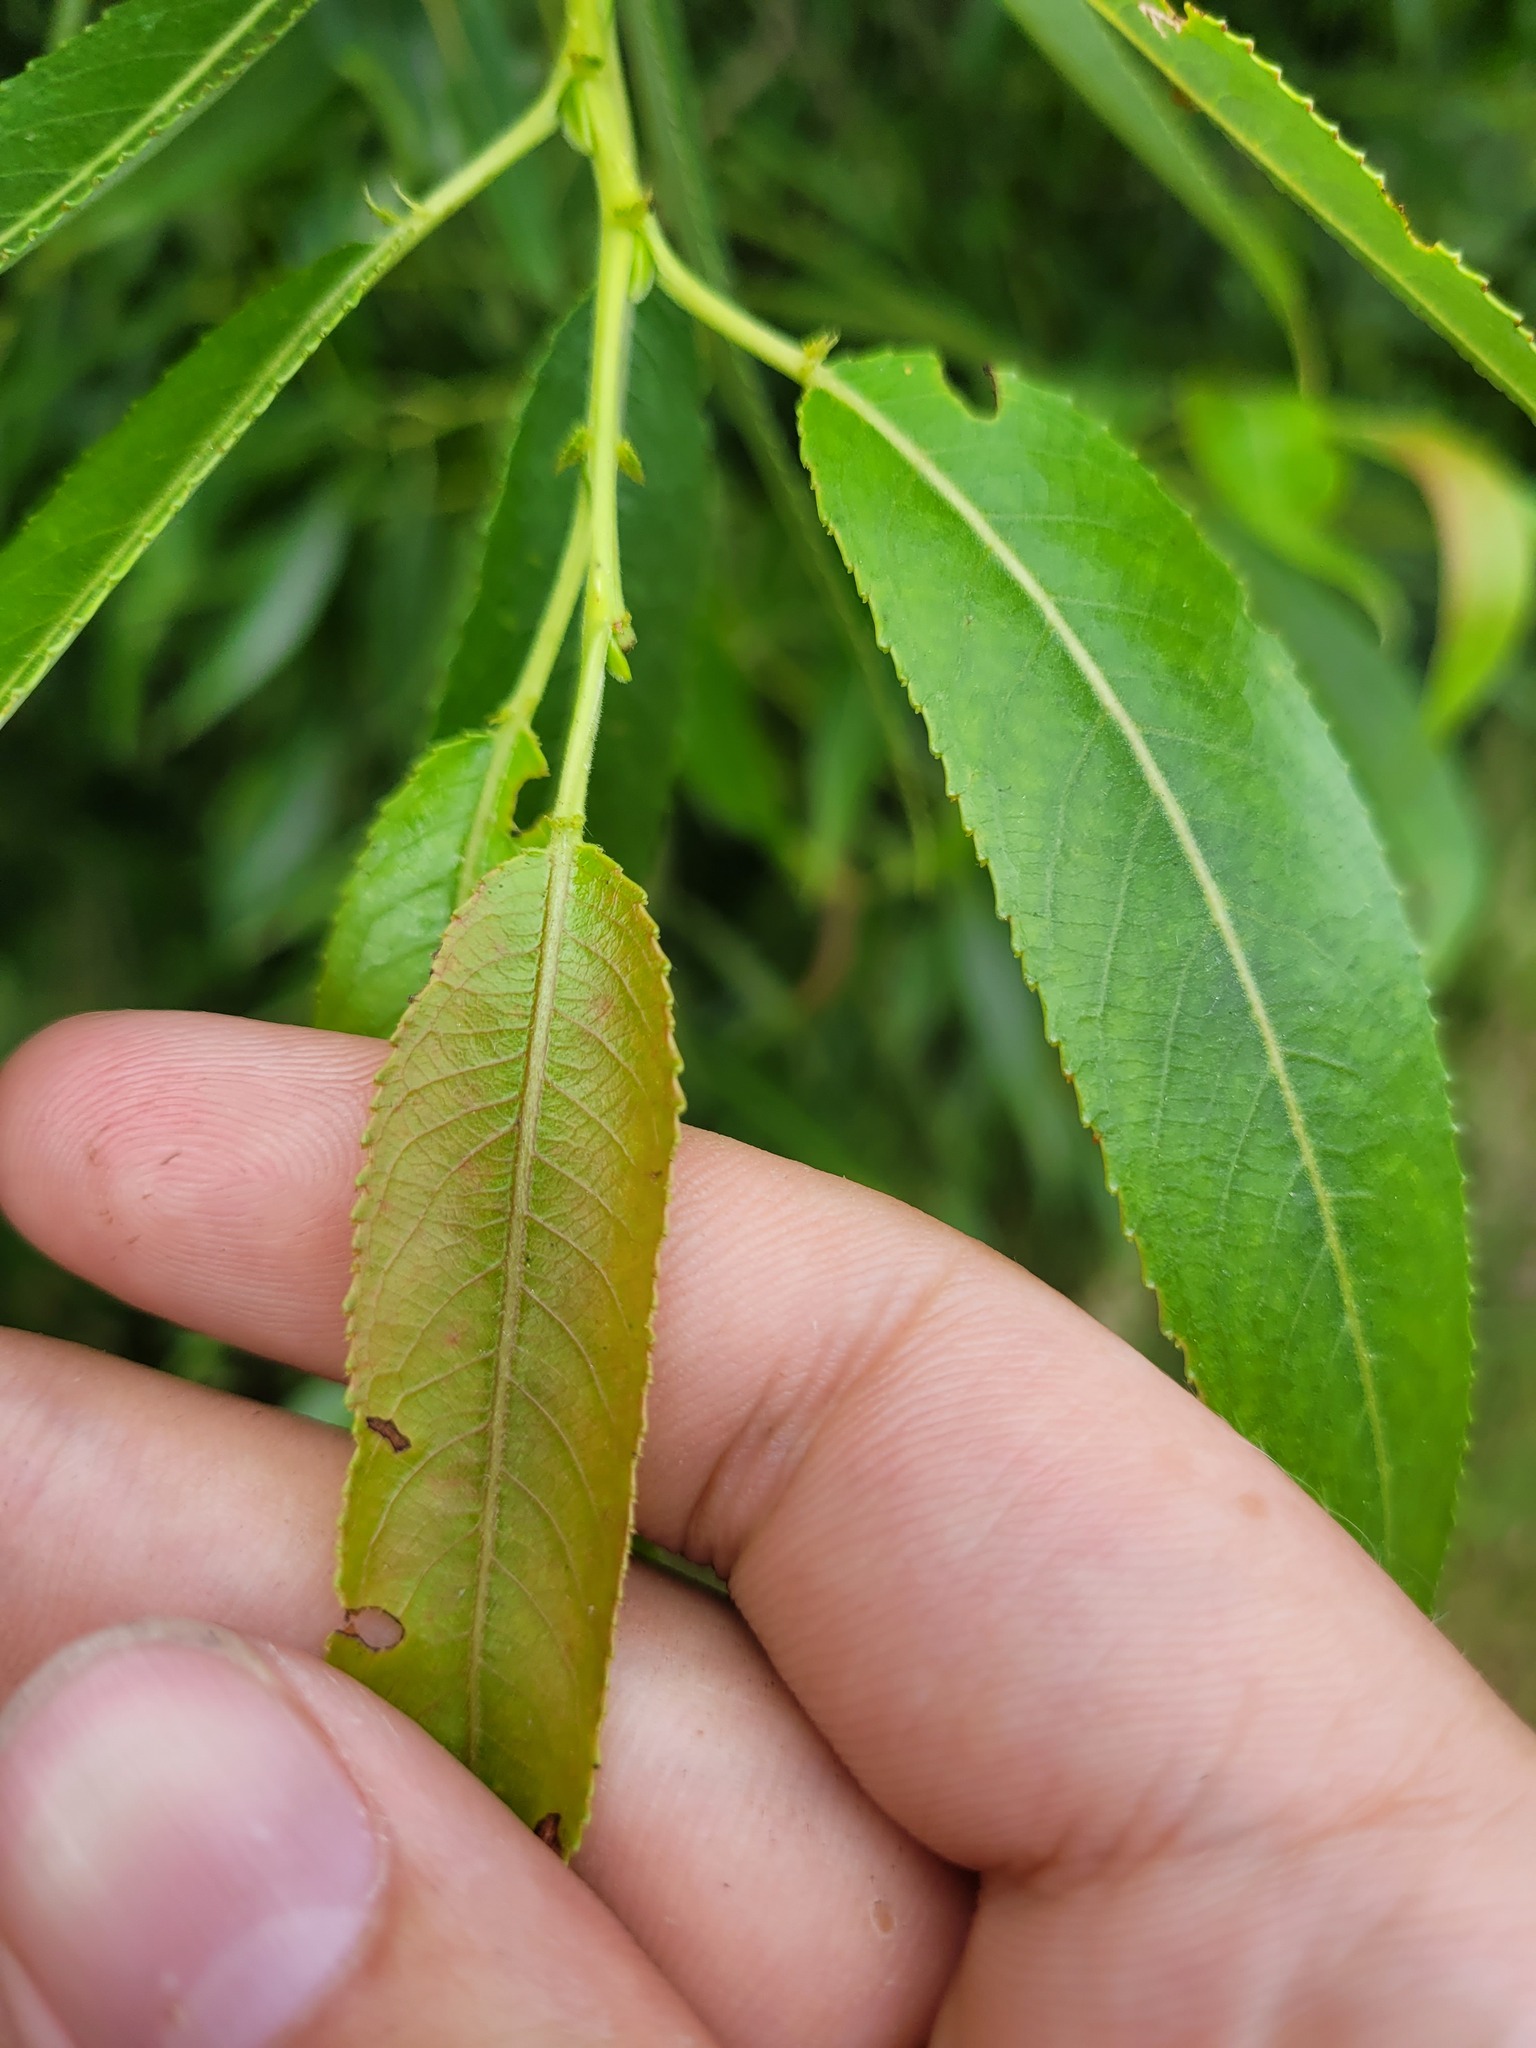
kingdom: Plantae
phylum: Tracheophyta
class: Magnoliopsida
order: Malpighiales
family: Salicaceae
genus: Salix
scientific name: Salix alba
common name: White willow
